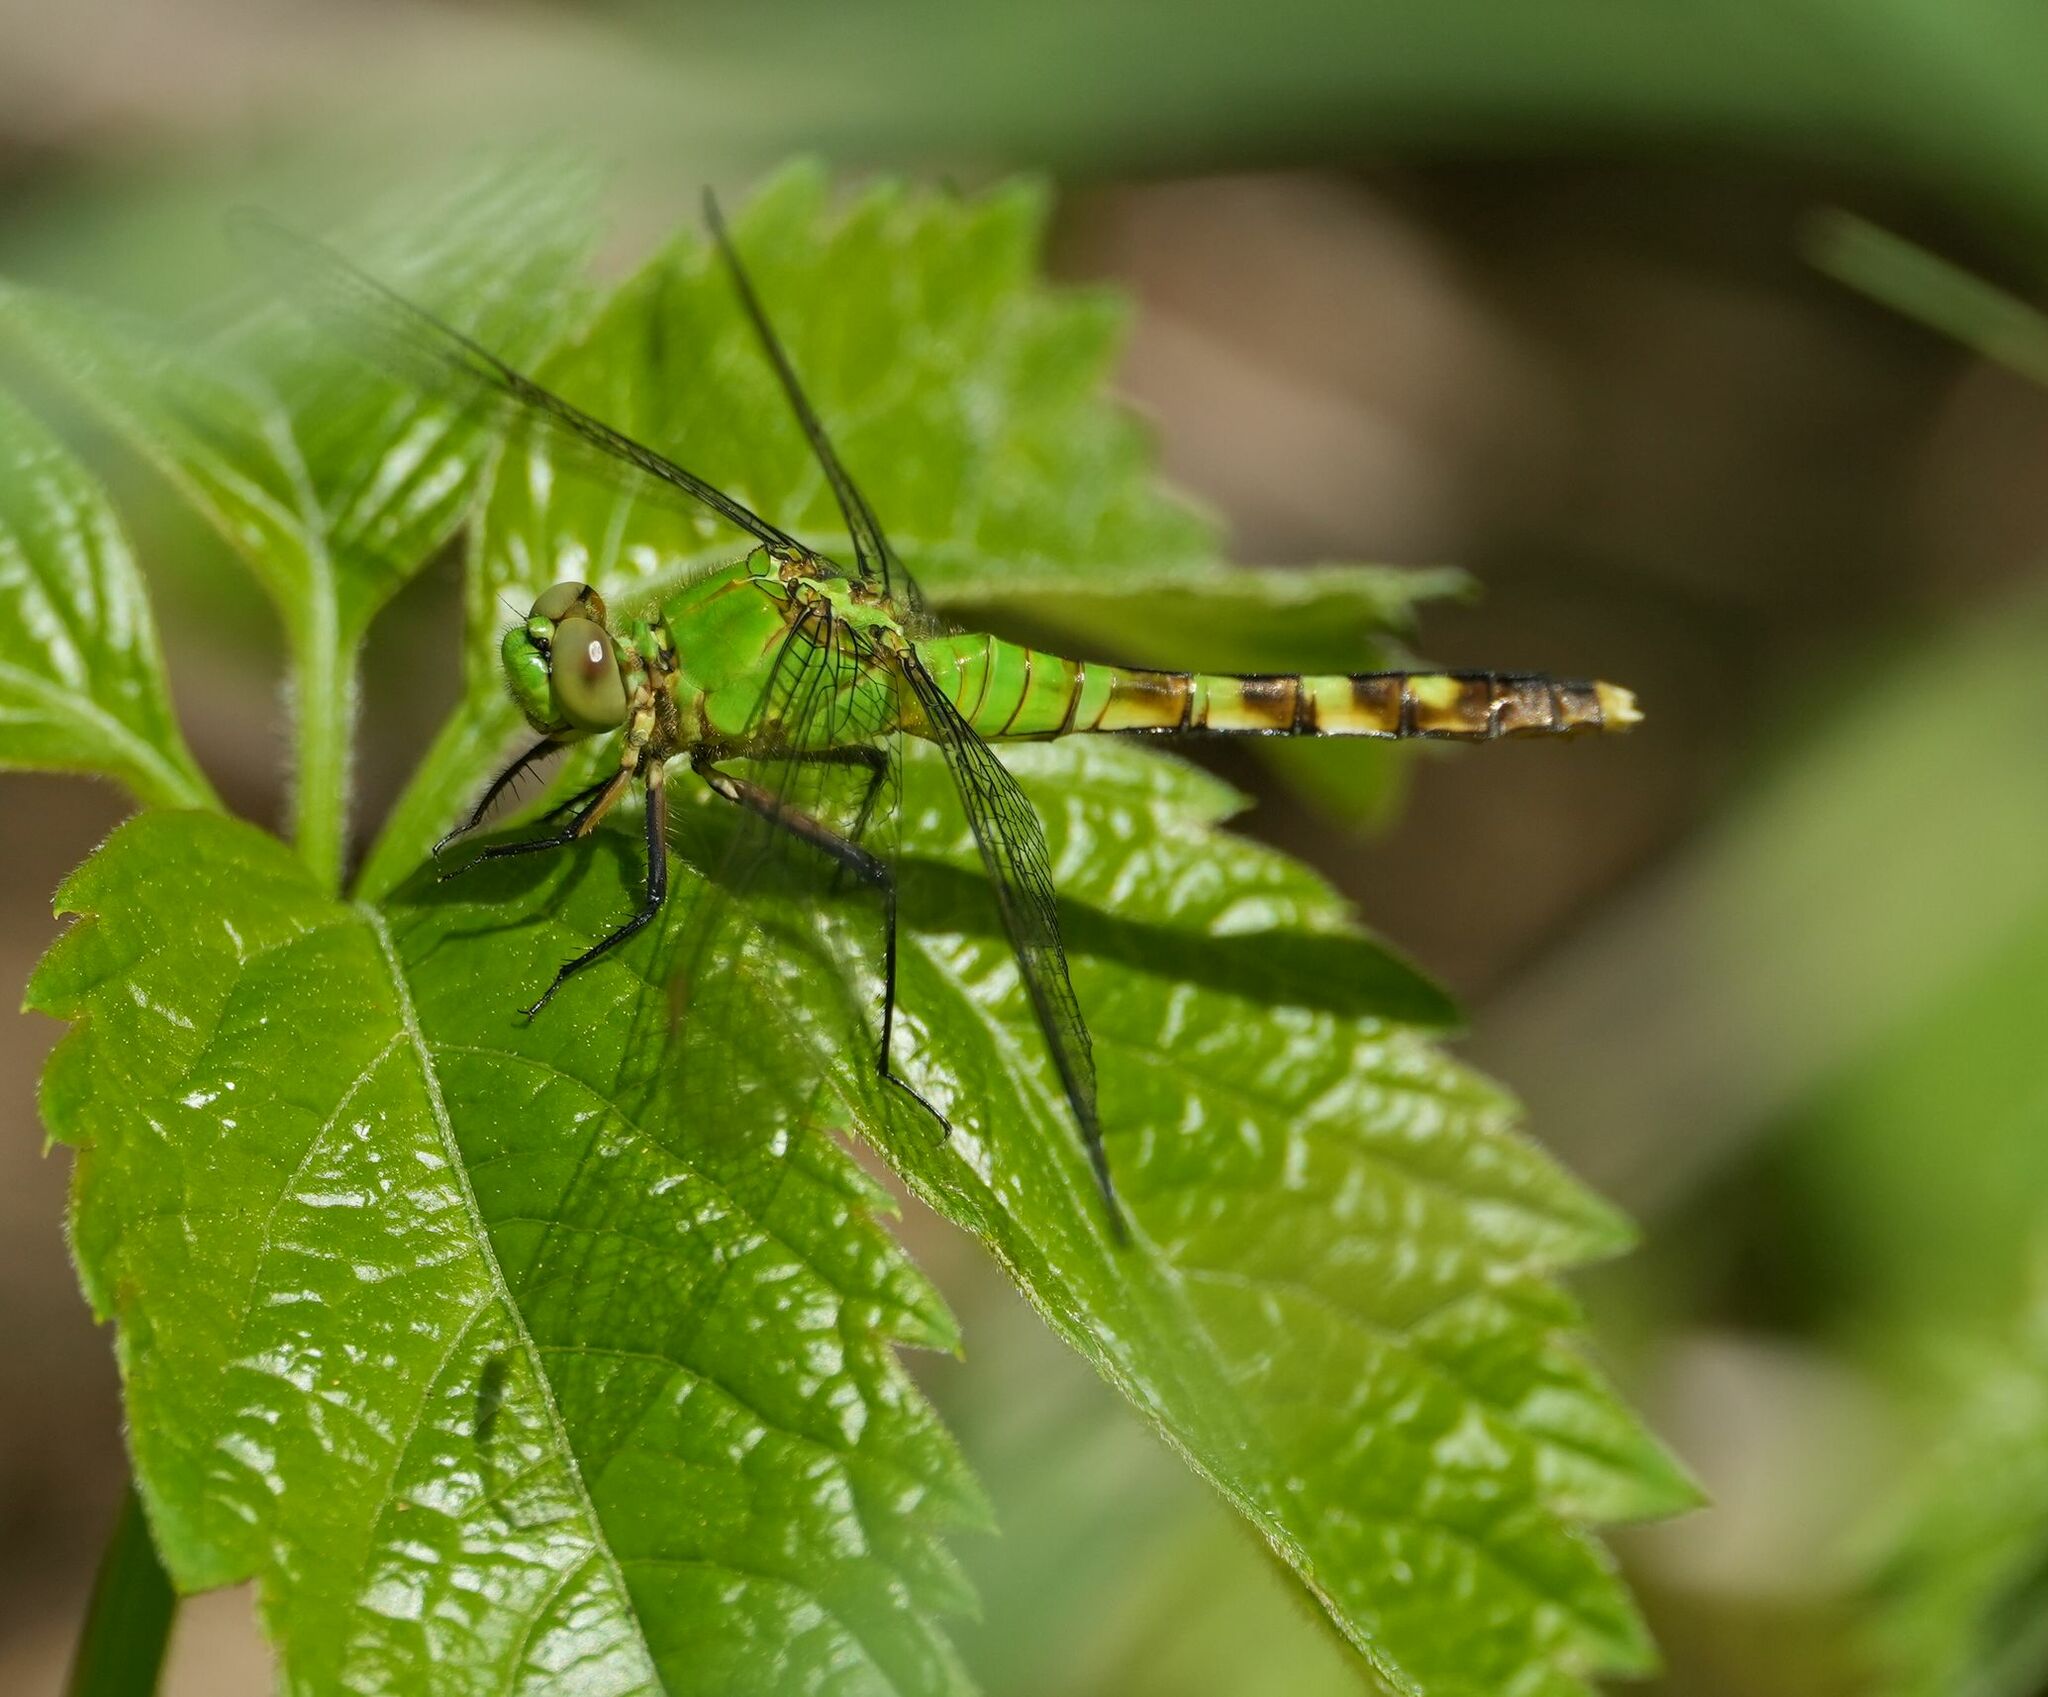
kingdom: Animalia
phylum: Arthropoda
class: Insecta
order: Odonata
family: Libellulidae
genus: Erythemis
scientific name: Erythemis simplicicollis
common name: Eastern pondhawk
